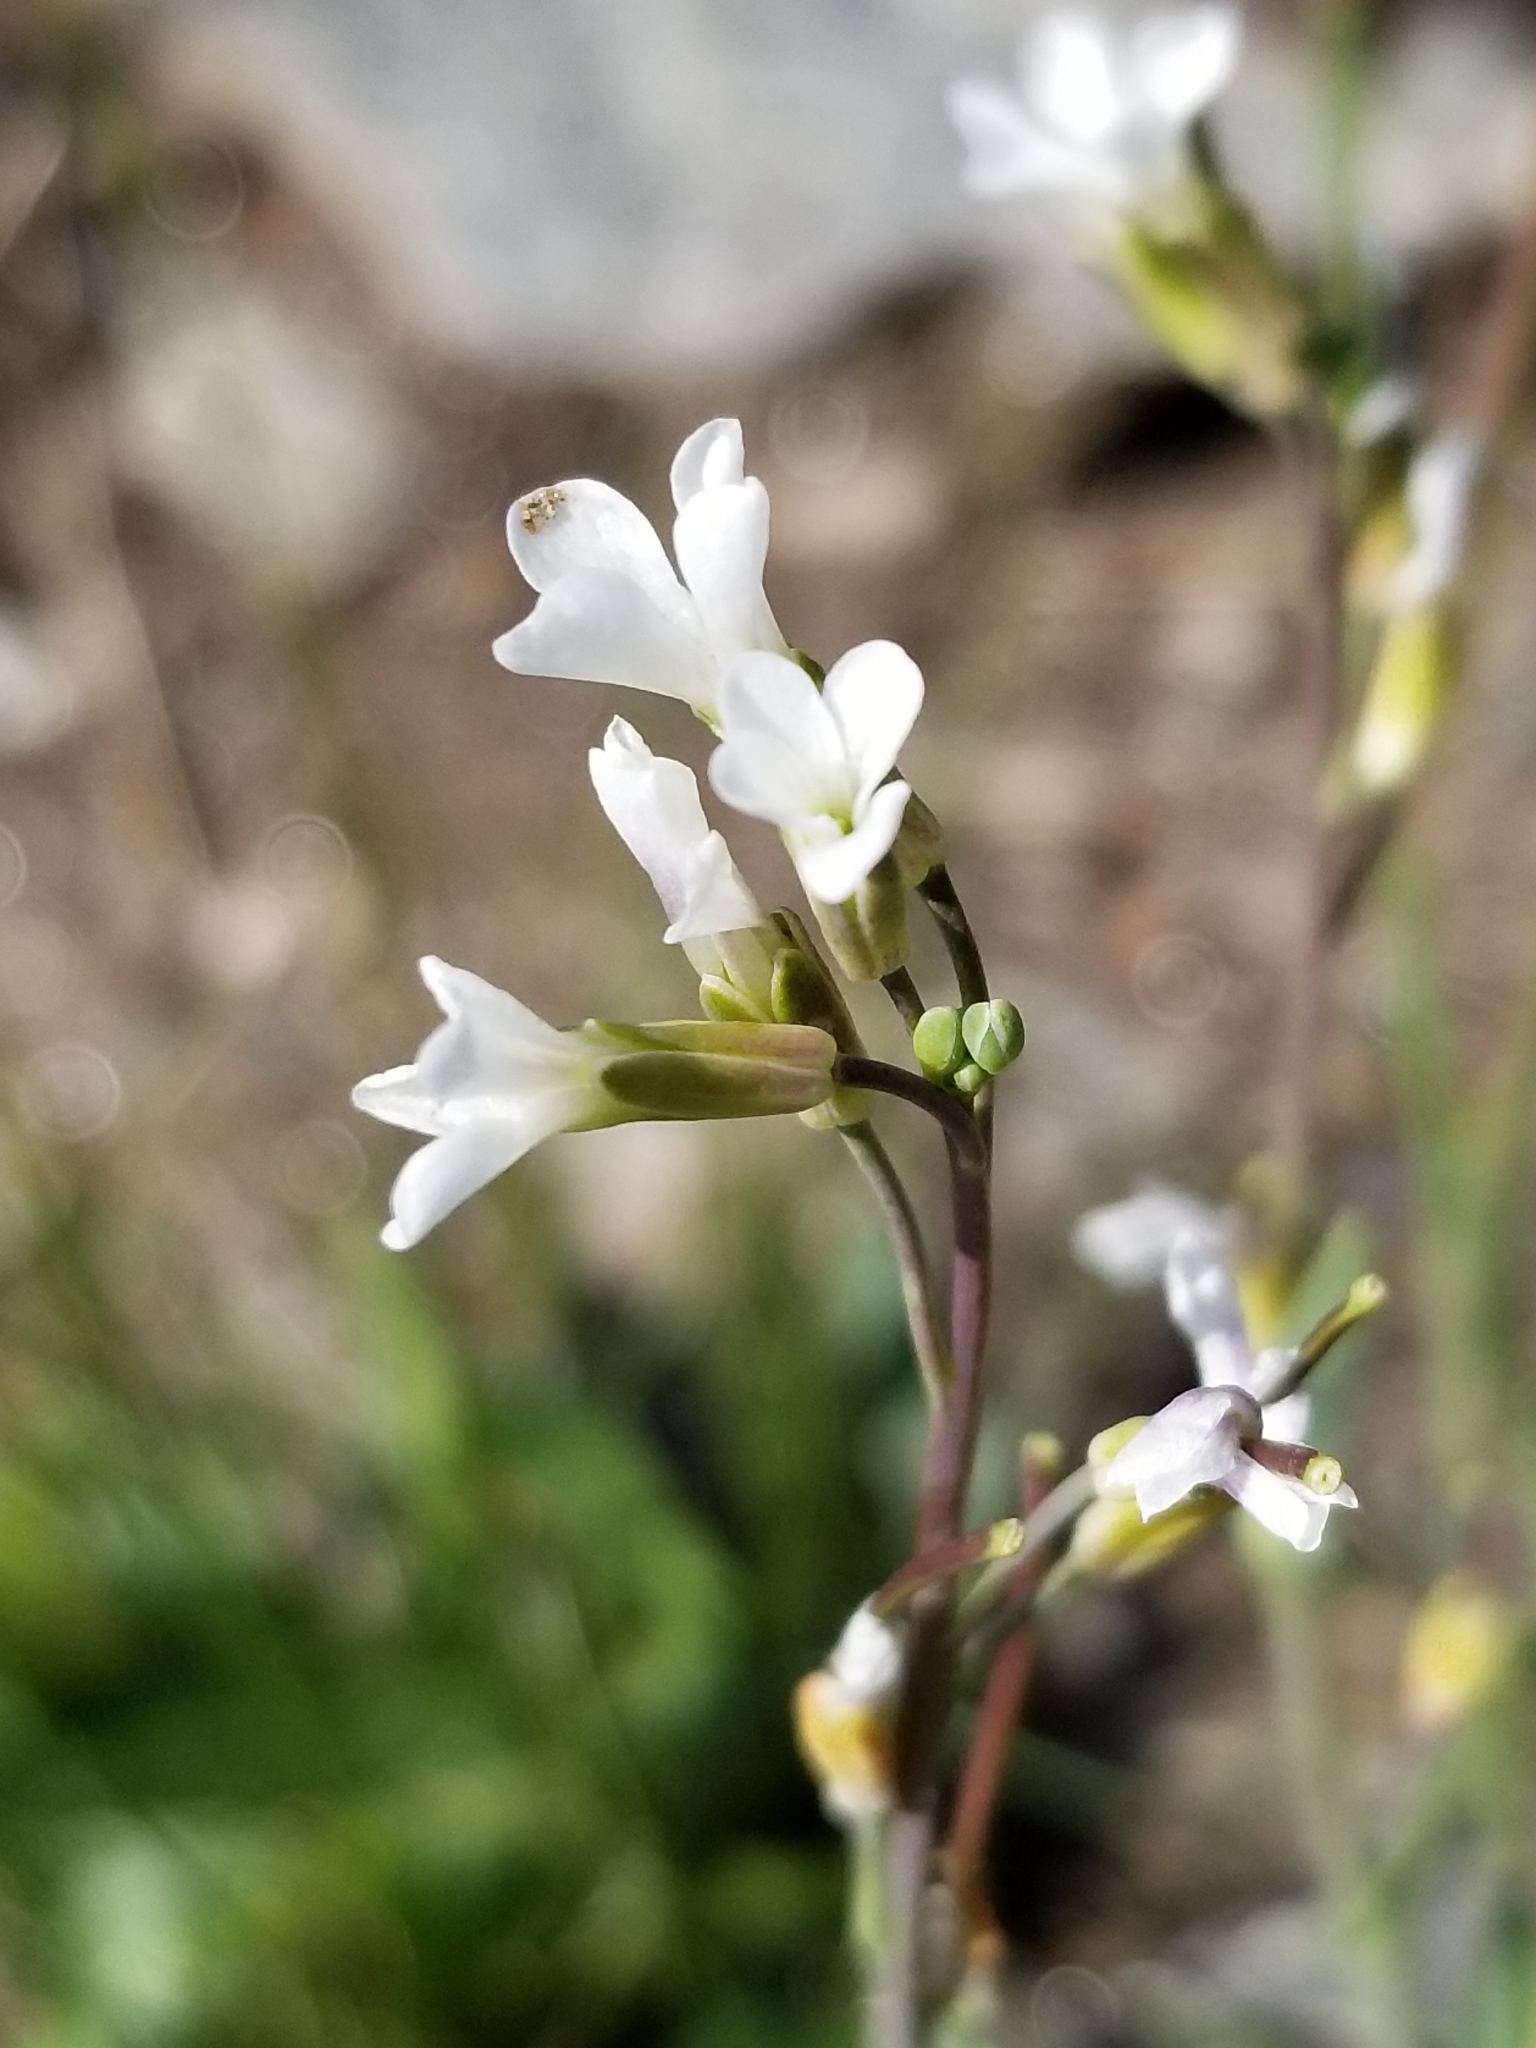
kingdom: Plantae
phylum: Tracheophyta
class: Magnoliopsida
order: Brassicales
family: Brassicaceae
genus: Boechera
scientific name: Boechera stricta
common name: Canadian rockcress
